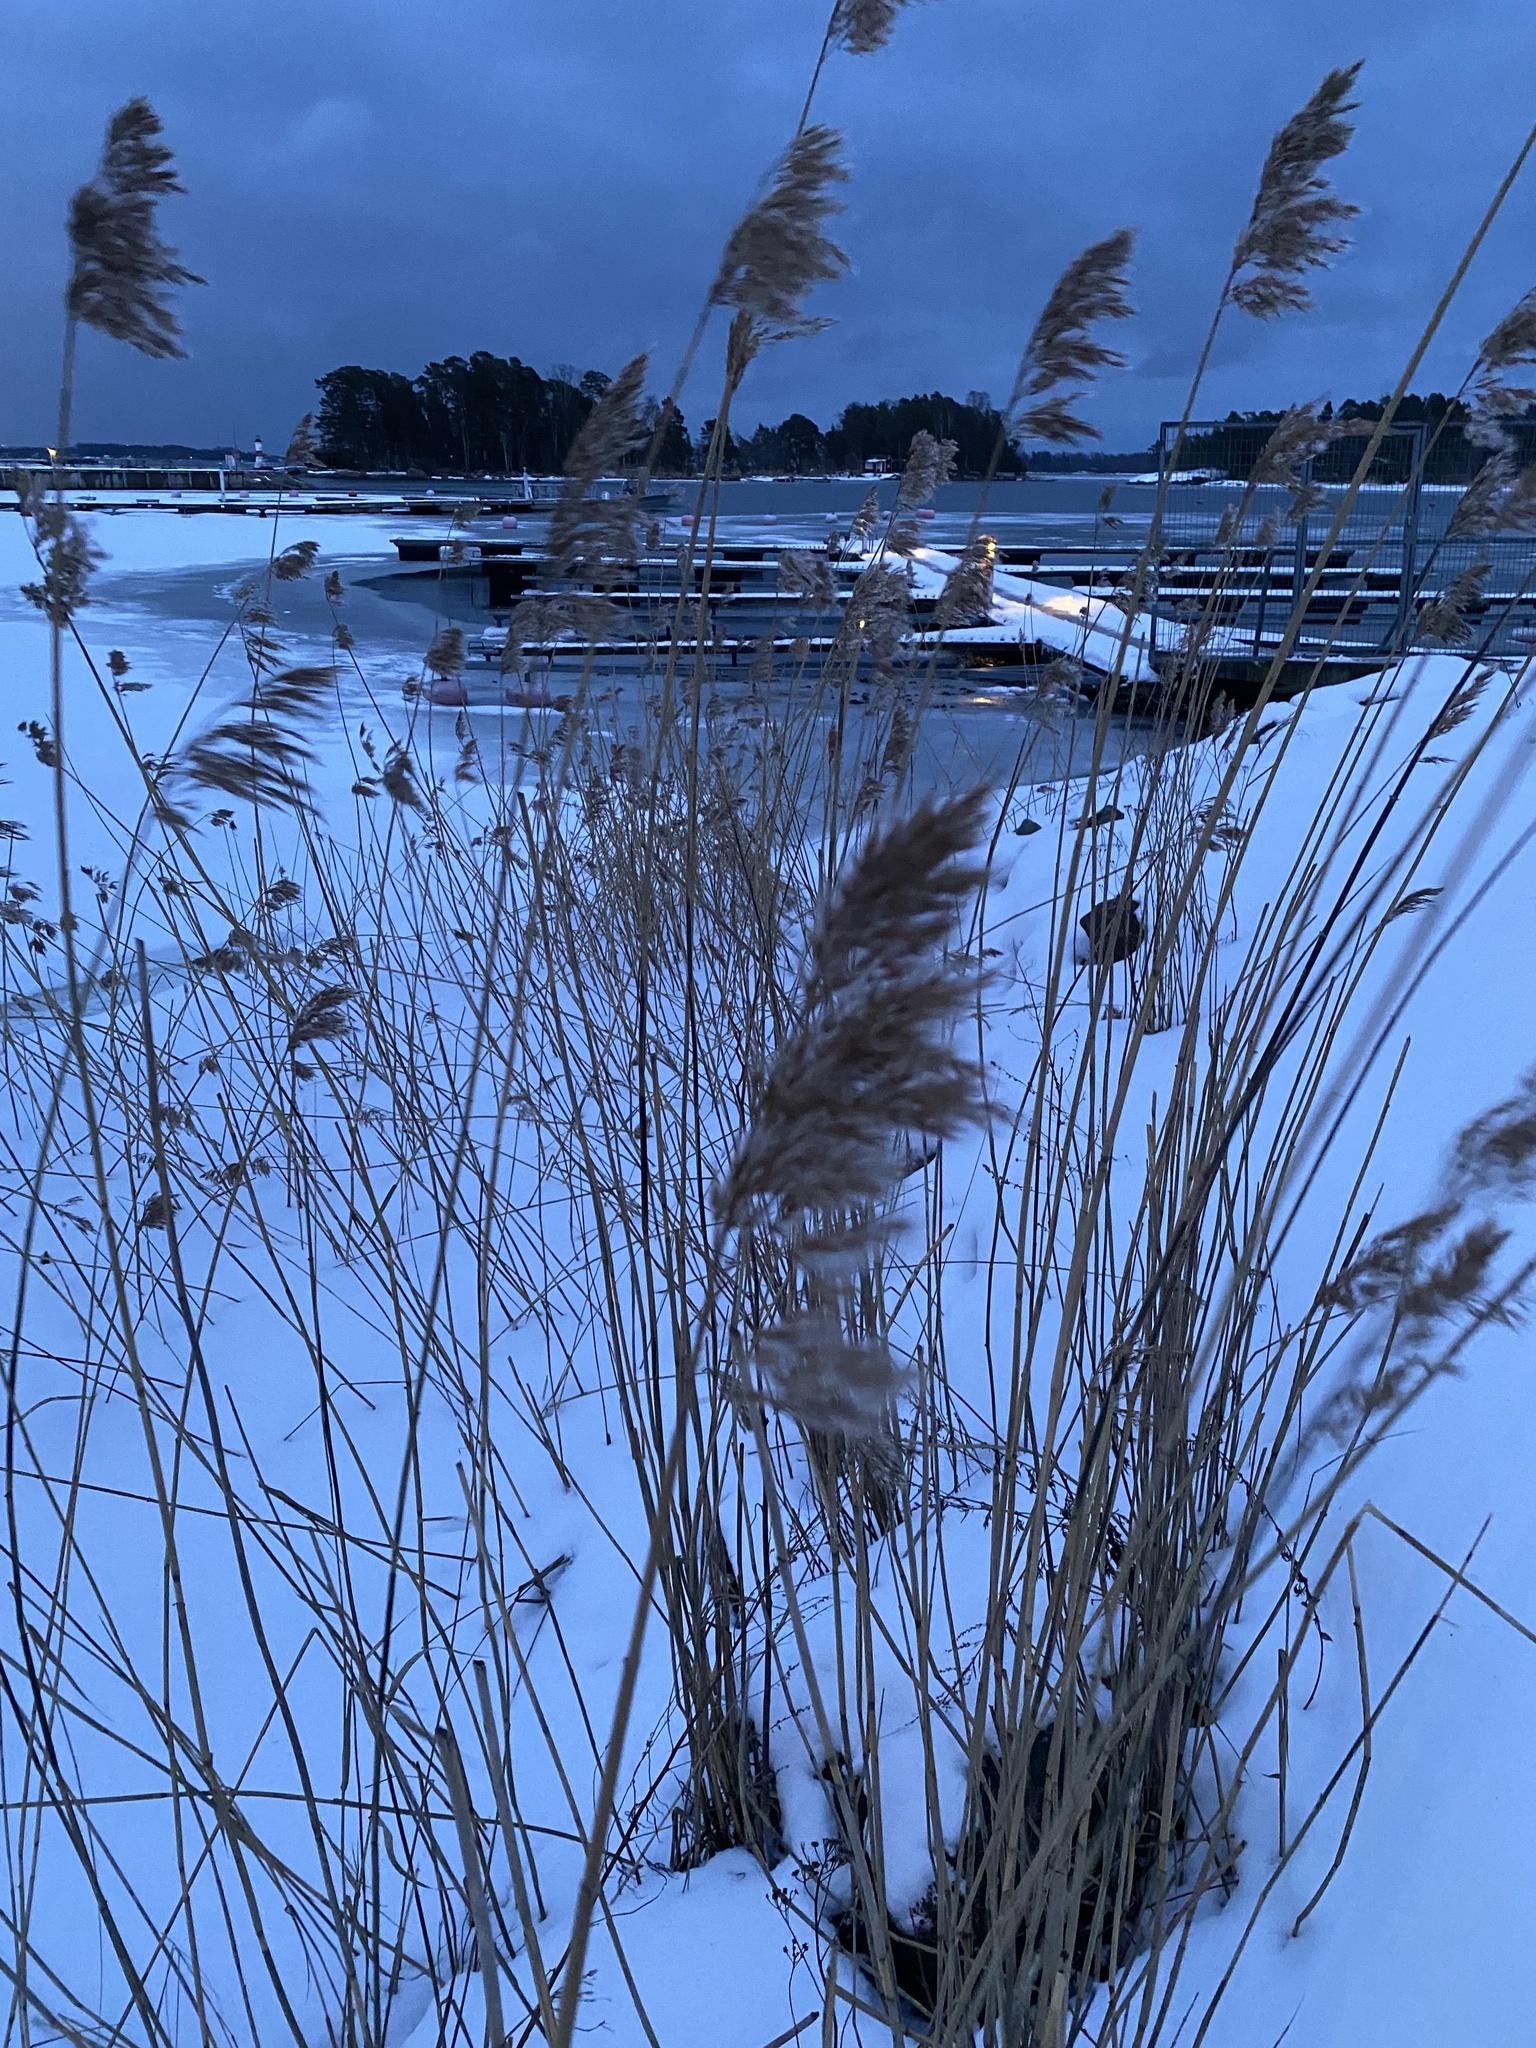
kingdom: Plantae
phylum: Tracheophyta
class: Liliopsida
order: Poales
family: Poaceae
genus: Phragmites
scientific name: Phragmites australis
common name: Common reed
